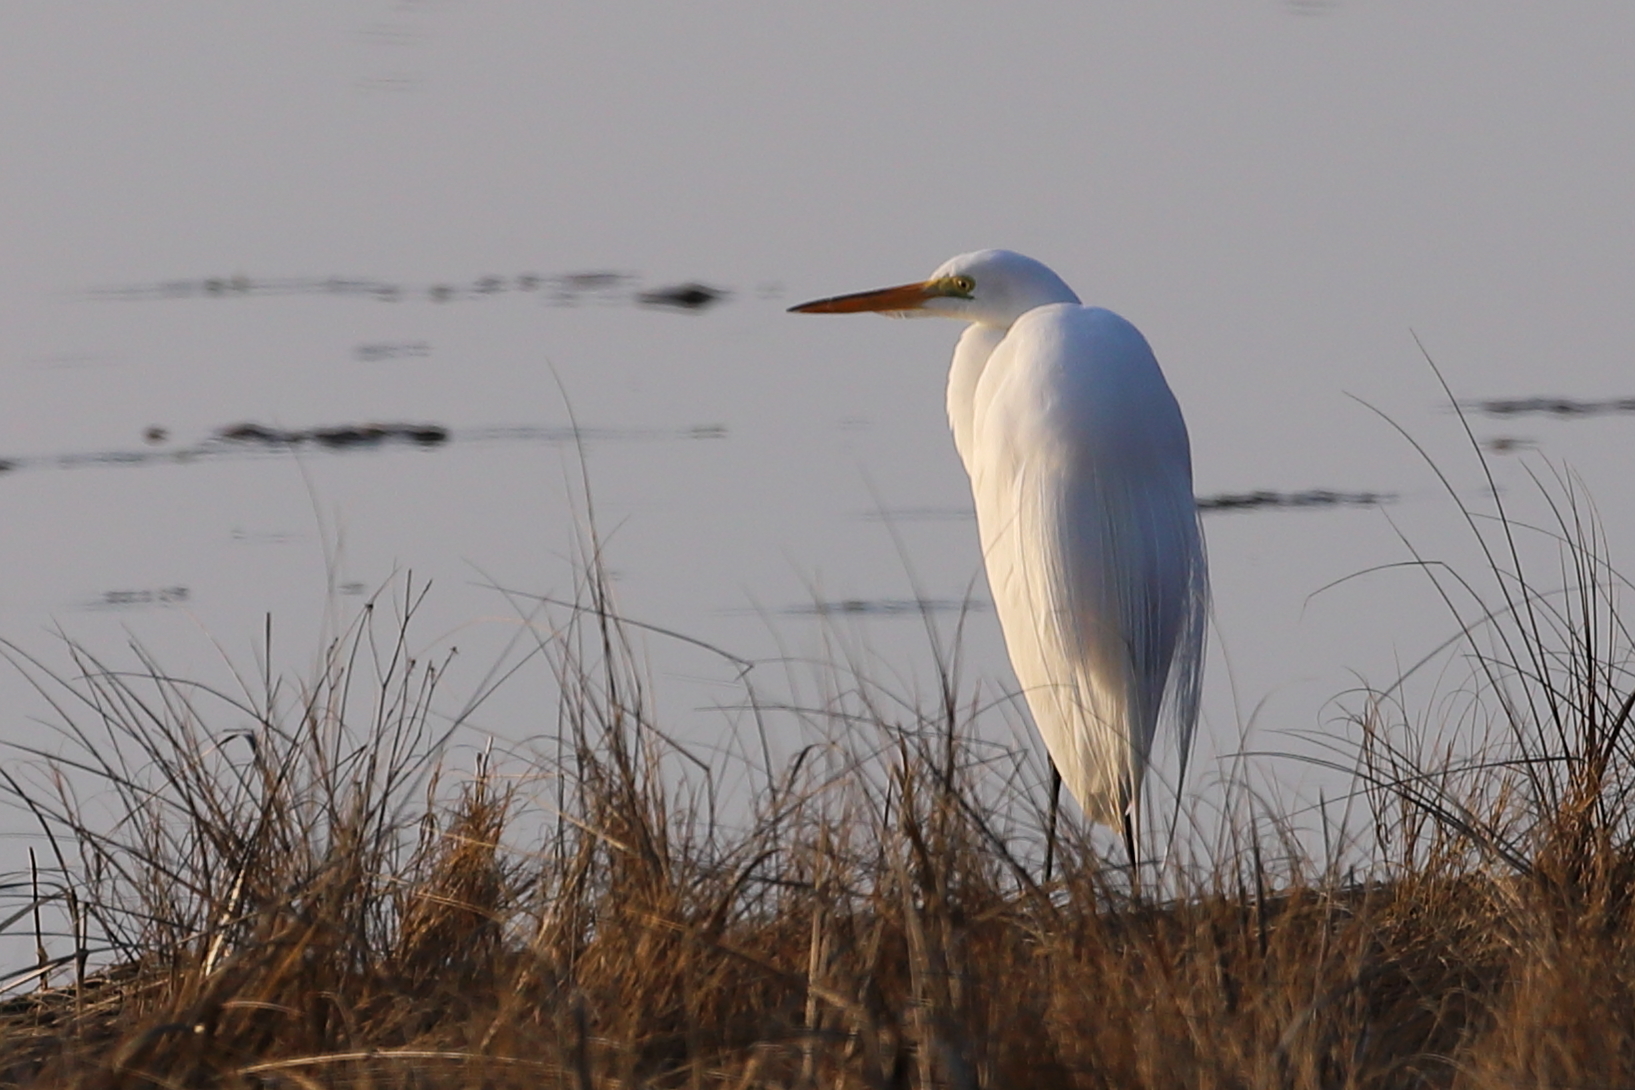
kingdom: Animalia
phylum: Chordata
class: Aves
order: Pelecaniformes
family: Ardeidae
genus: Ardea
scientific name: Ardea alba
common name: Great egret
